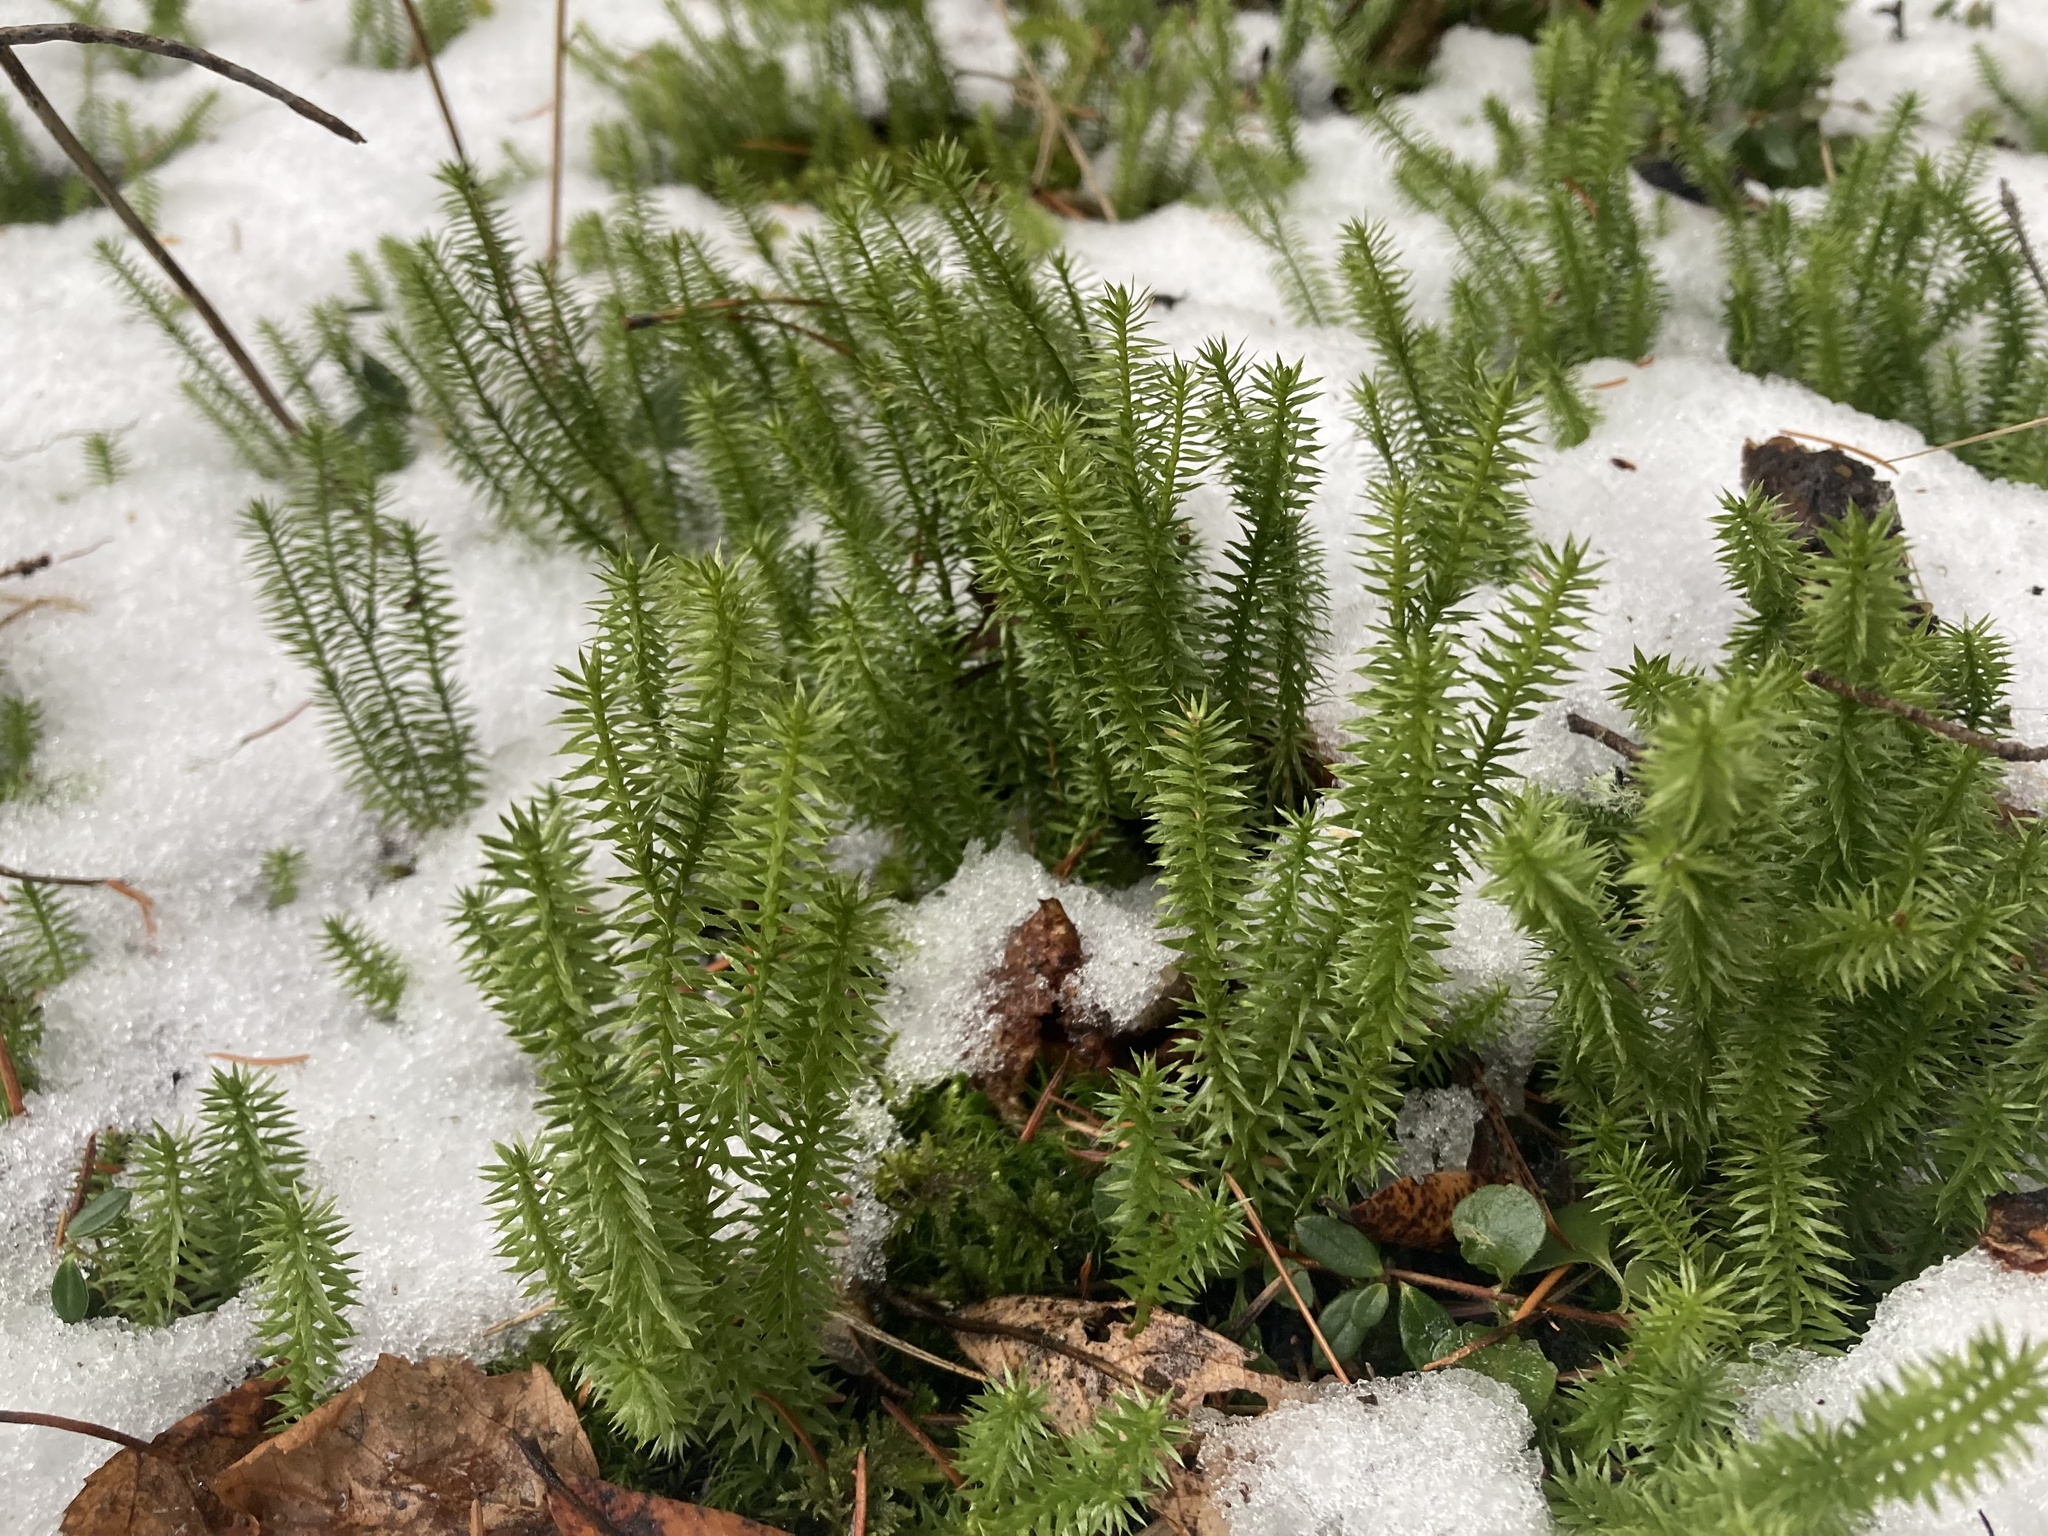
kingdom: Plantae
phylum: Tracheophyta
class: Lycopodiopsida
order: Lycopodiales
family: Lycopodiaceae
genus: Spinulum
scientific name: Spinulum annotinum
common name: Interrupted club-moss
